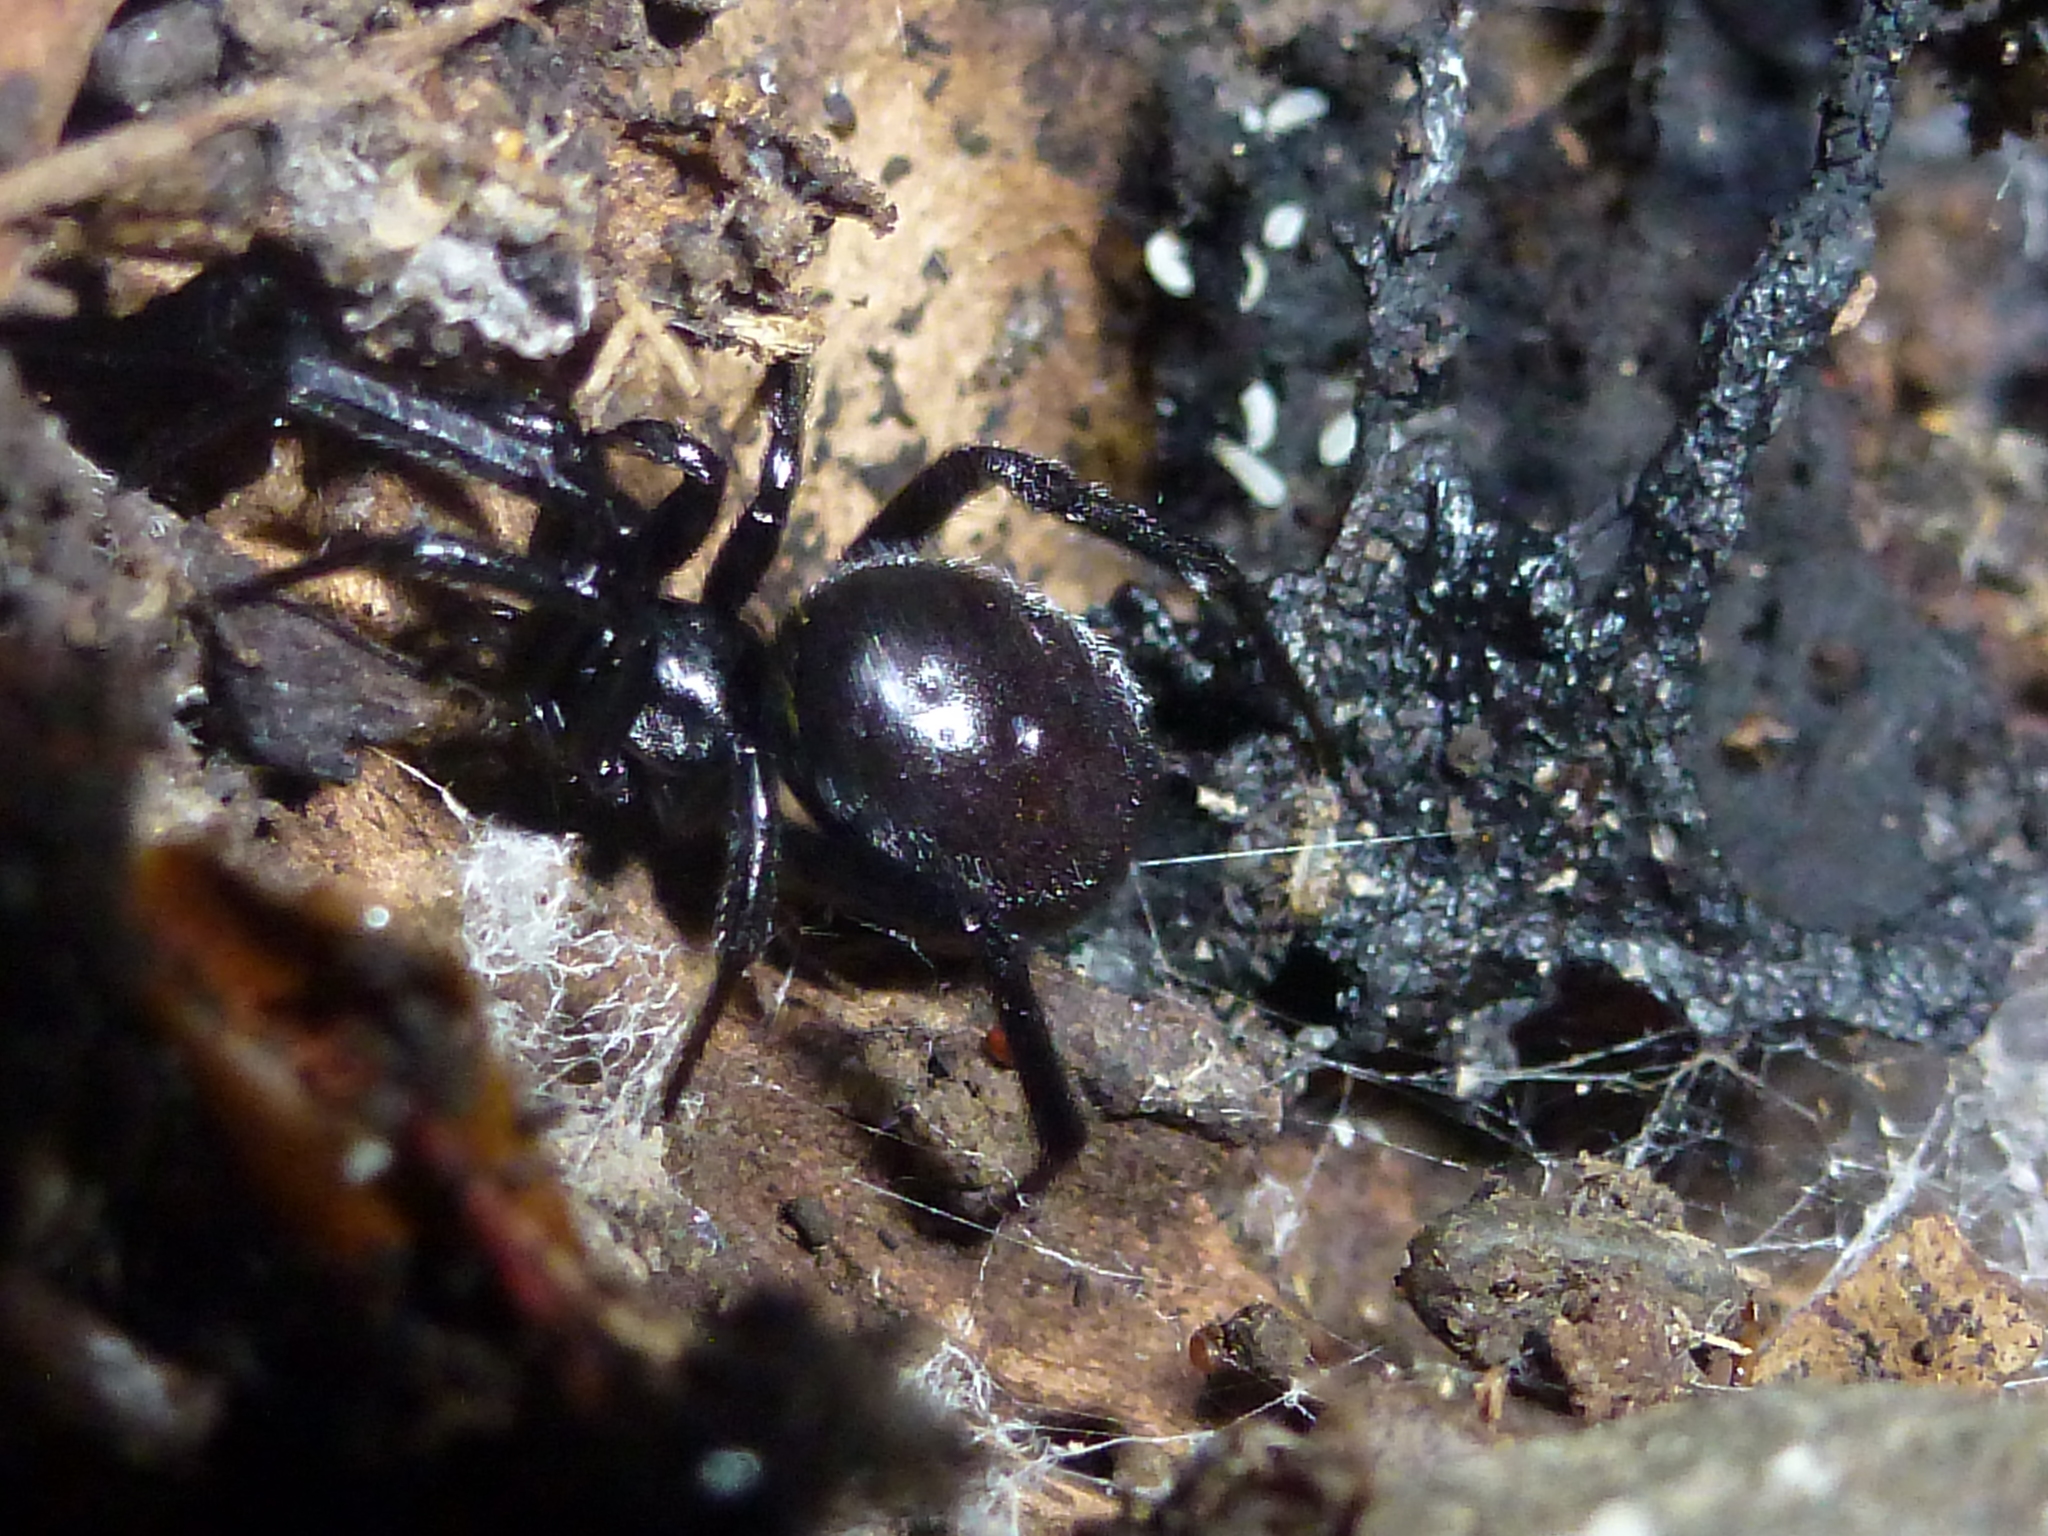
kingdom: Animalia
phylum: Arthropoda
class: Arachnida
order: Araneae
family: Theridiidae
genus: Steatoda
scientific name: Steatoda capensis
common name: Cobweb weaver
